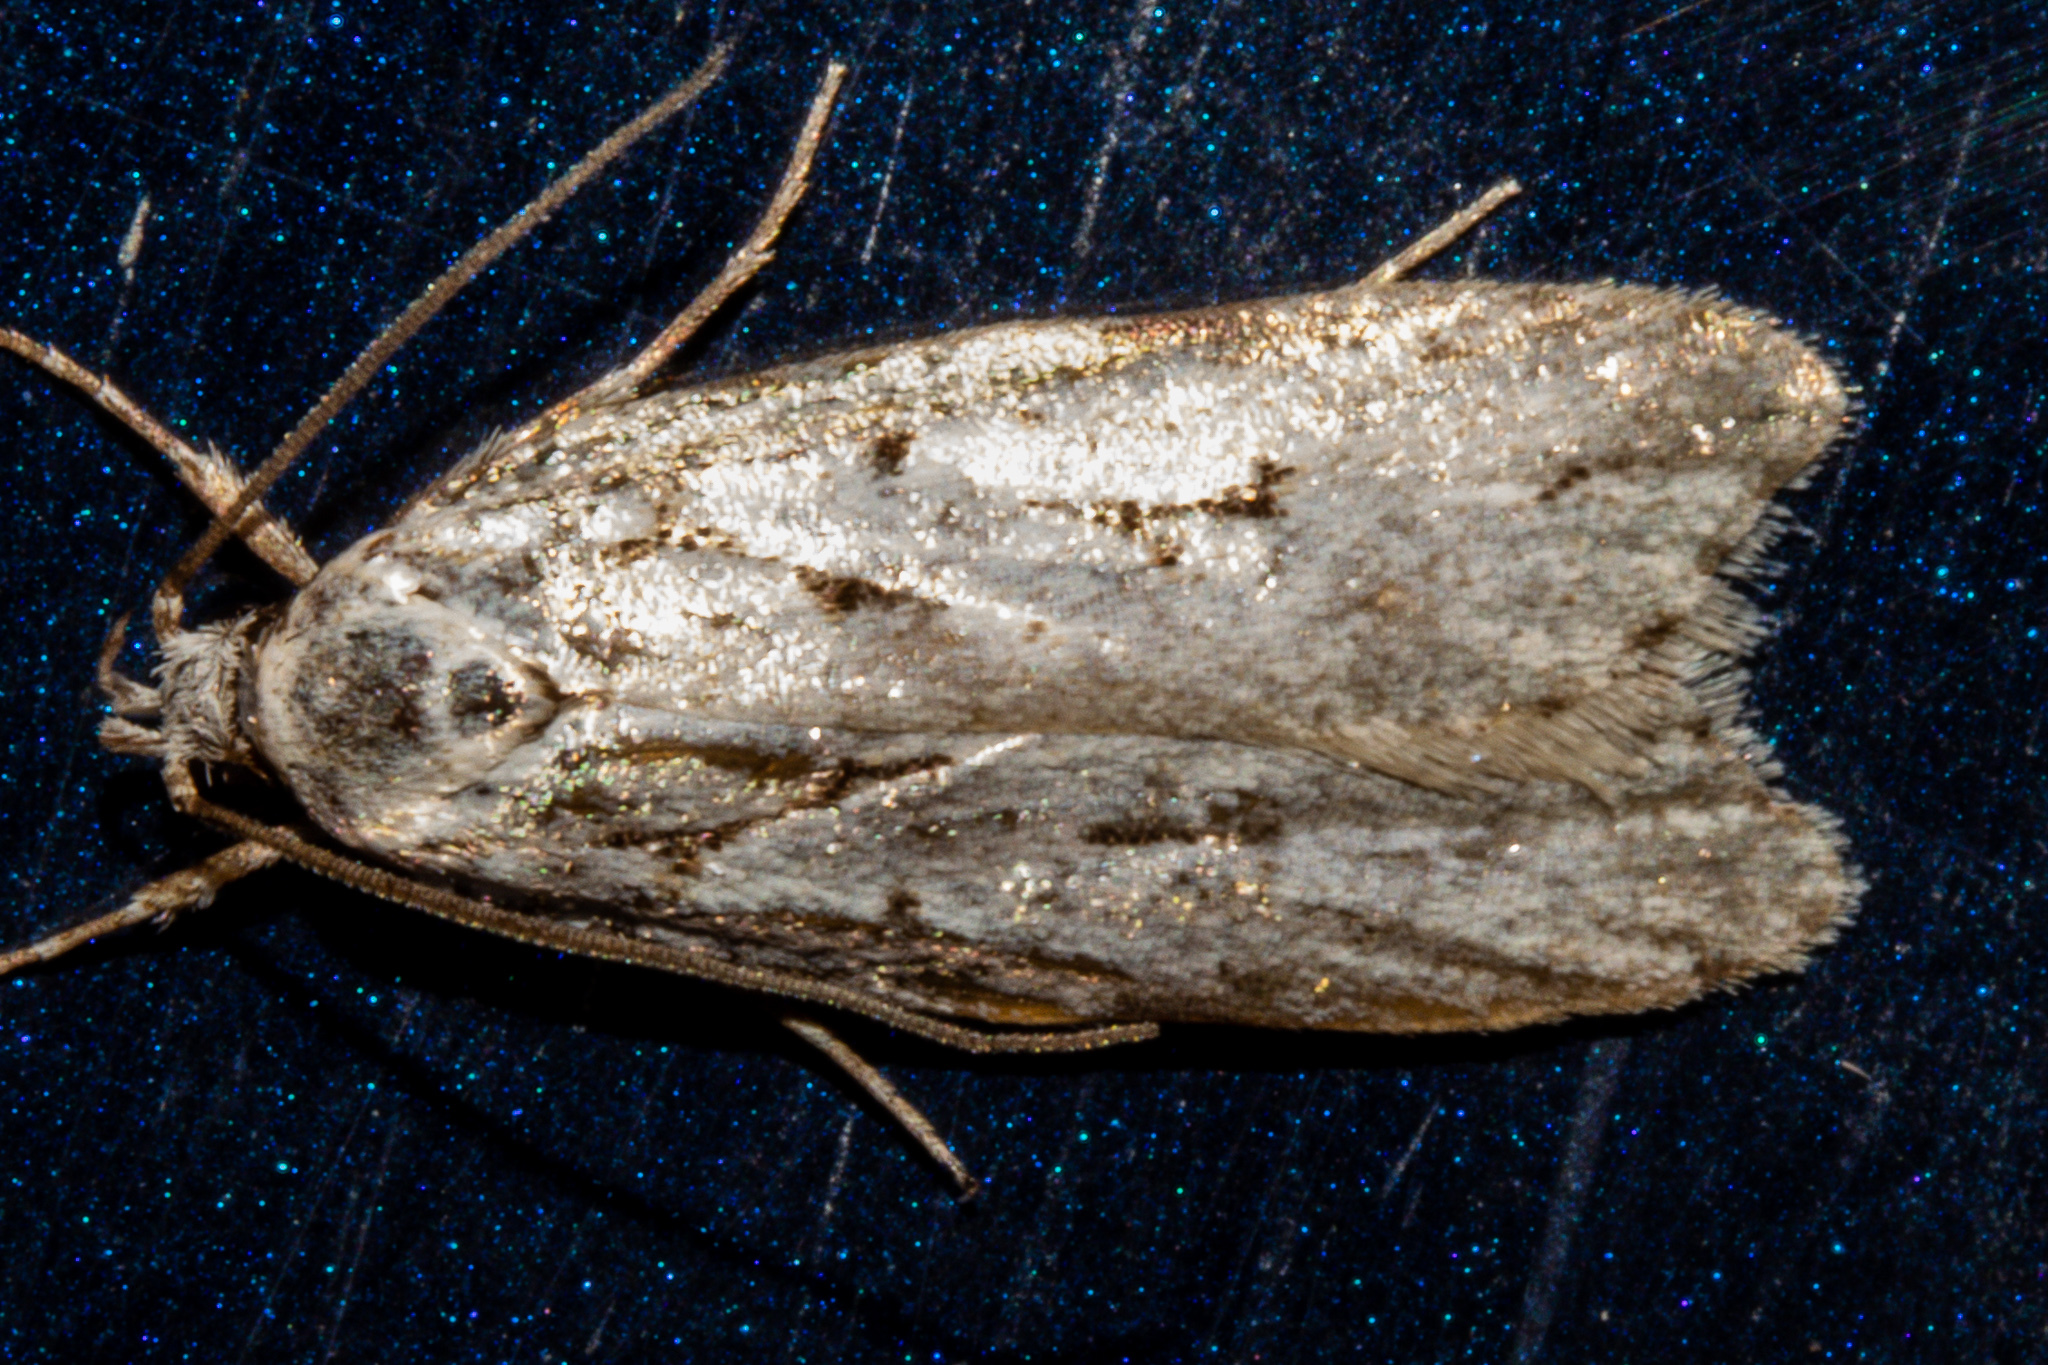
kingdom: Animalia
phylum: Arthropoda
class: Insecta
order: Lepidoptera
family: Oecophoridae
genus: Izatha
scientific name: Izatha heroica
